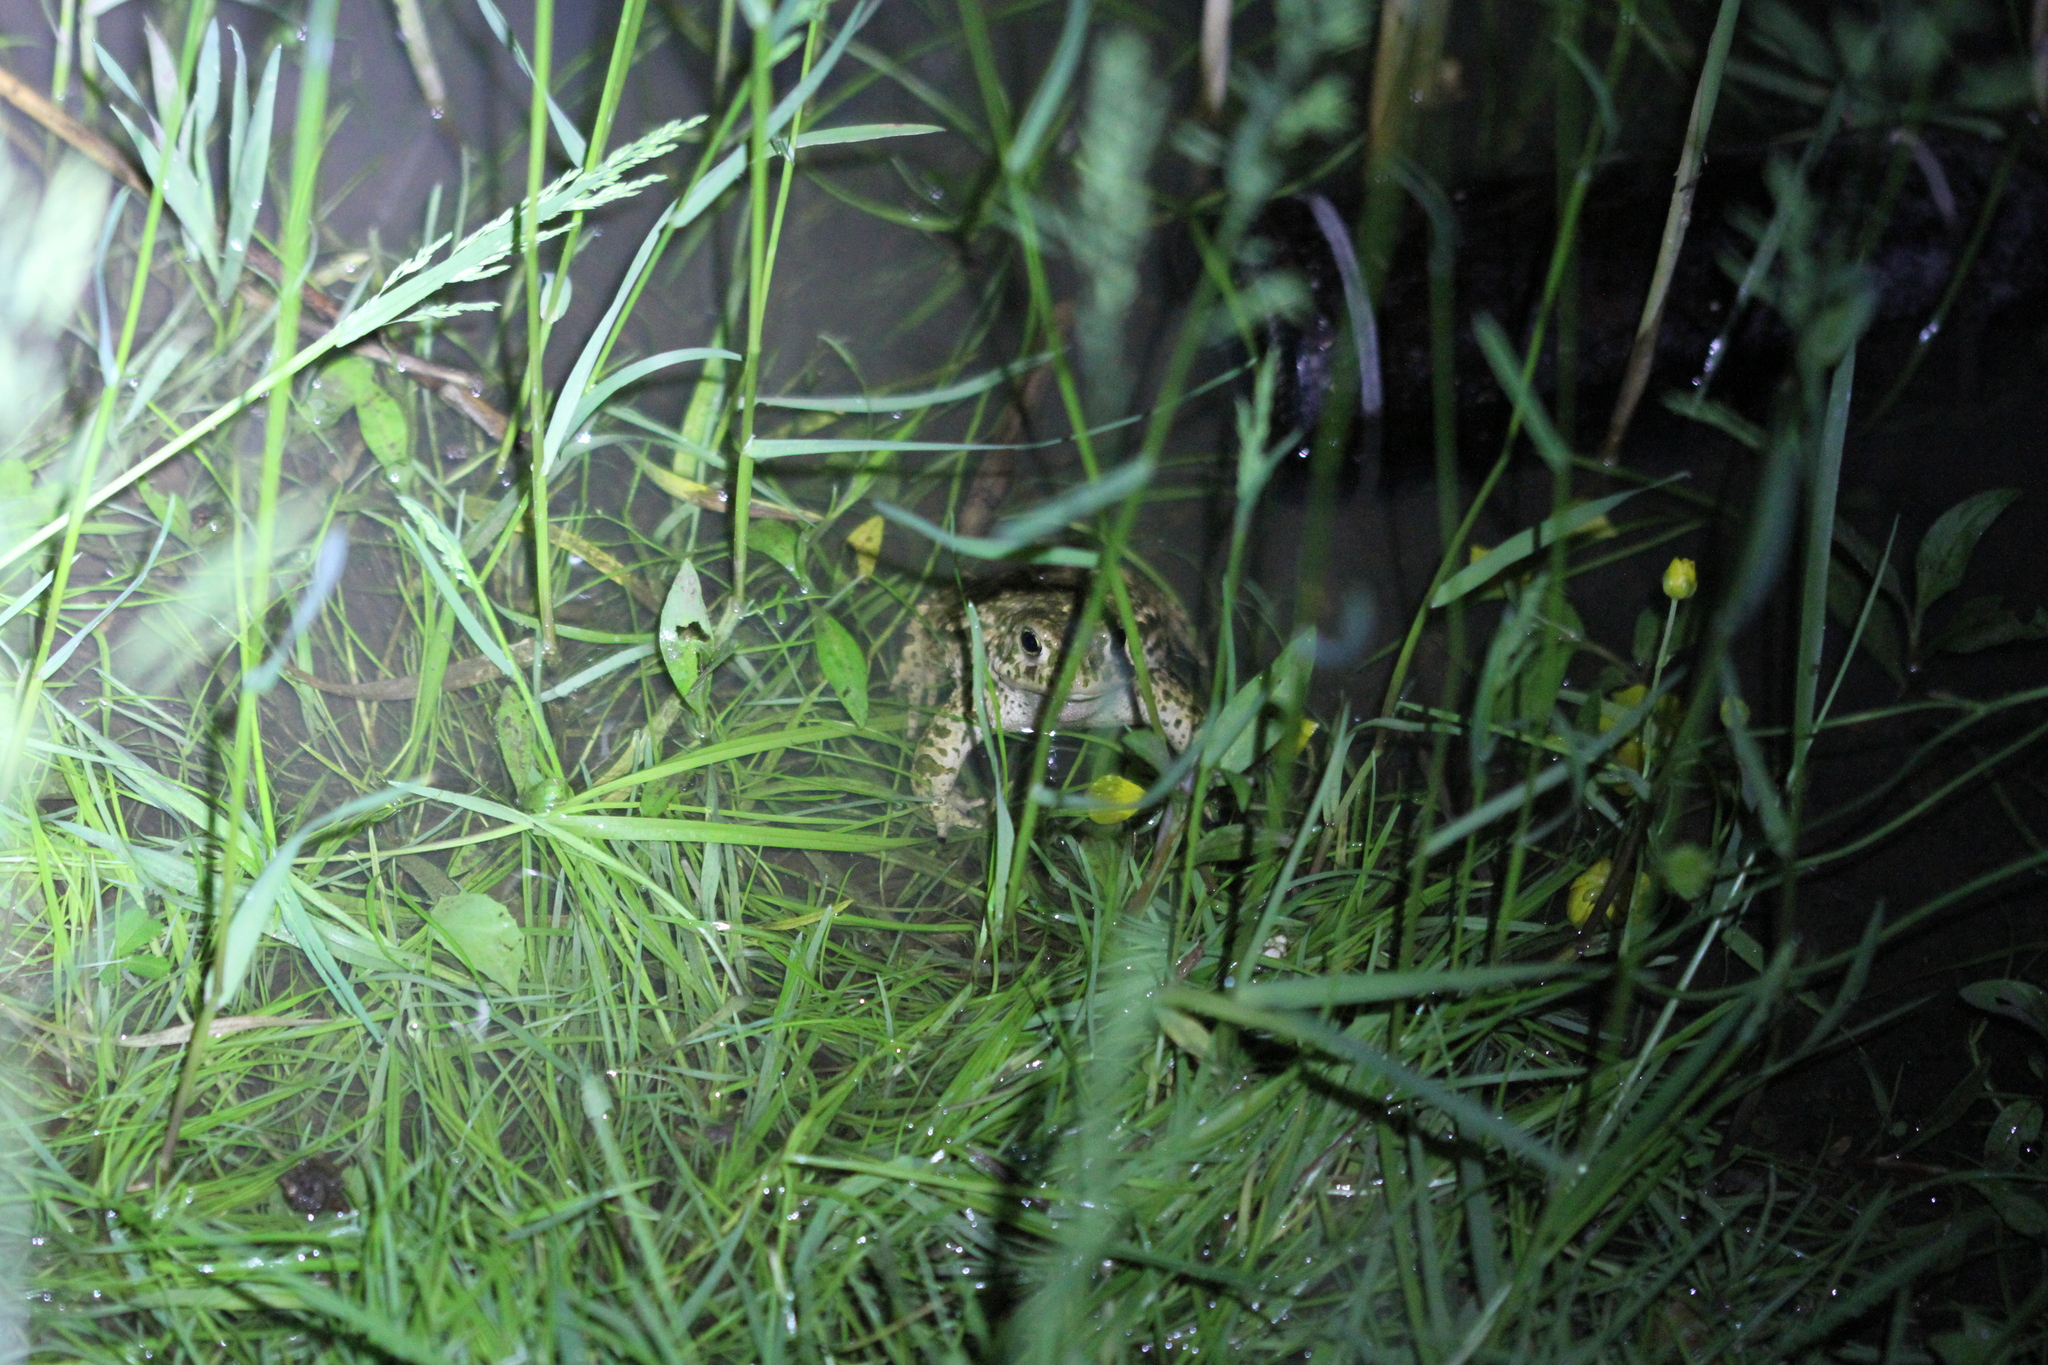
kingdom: Animalia
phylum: Chordata
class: Amphibia
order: Anura
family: Bufonidae
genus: Epidalea
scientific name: Epidalea calamita
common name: Natterjack toad
